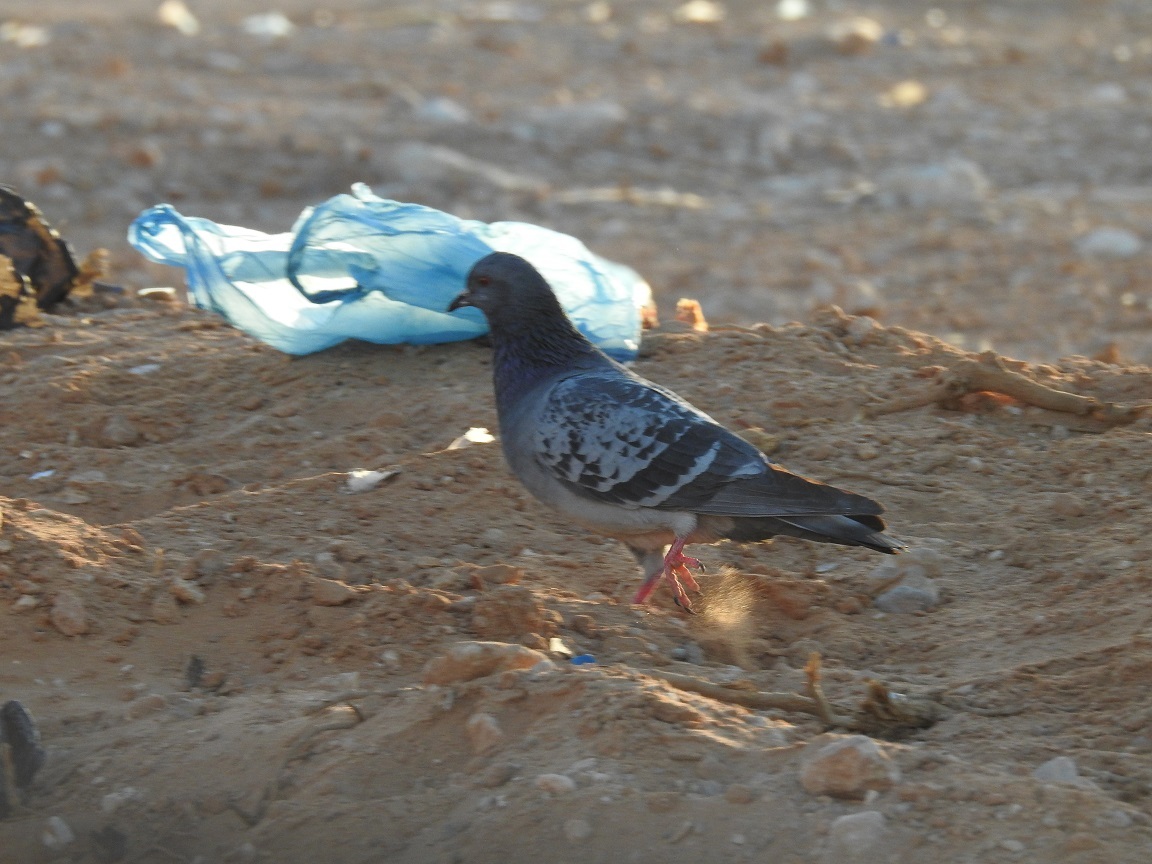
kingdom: Animalia
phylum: Chordata
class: Aves
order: Columbiformes
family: Columbidae
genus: Columba
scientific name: Columba livia
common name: Rock pigeon
